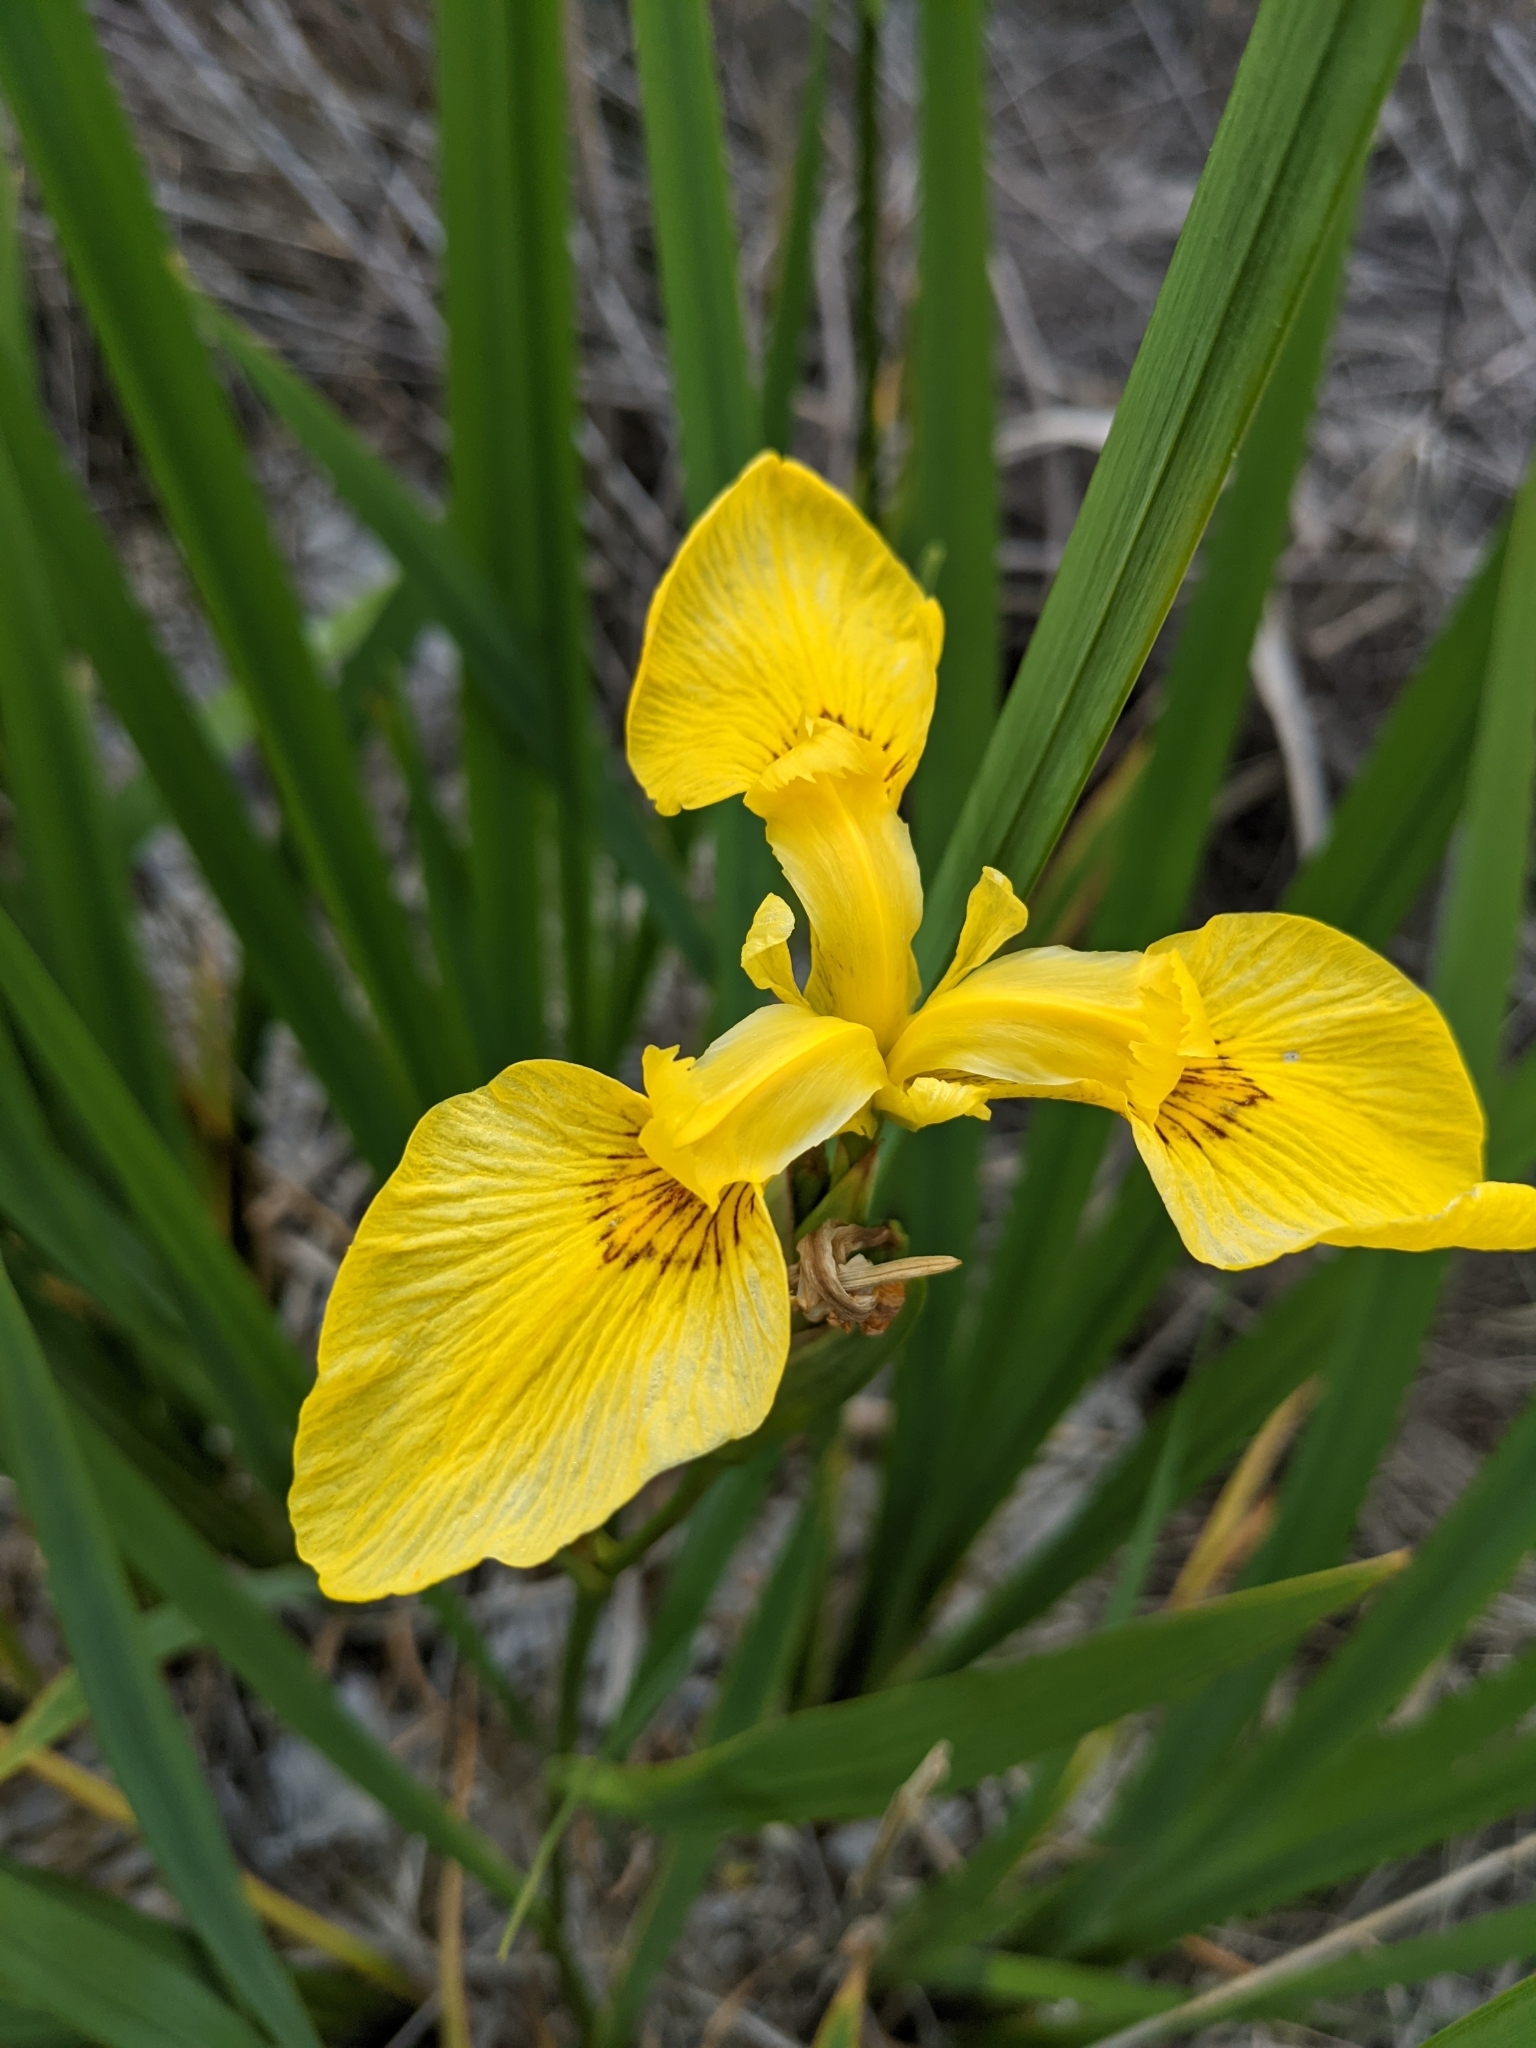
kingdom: Plantae
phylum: Tracheophyta
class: Liliopsida
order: Asparagales
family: Iridaceae
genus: Iris
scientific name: Iris pseudacorus
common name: Yellow flag
